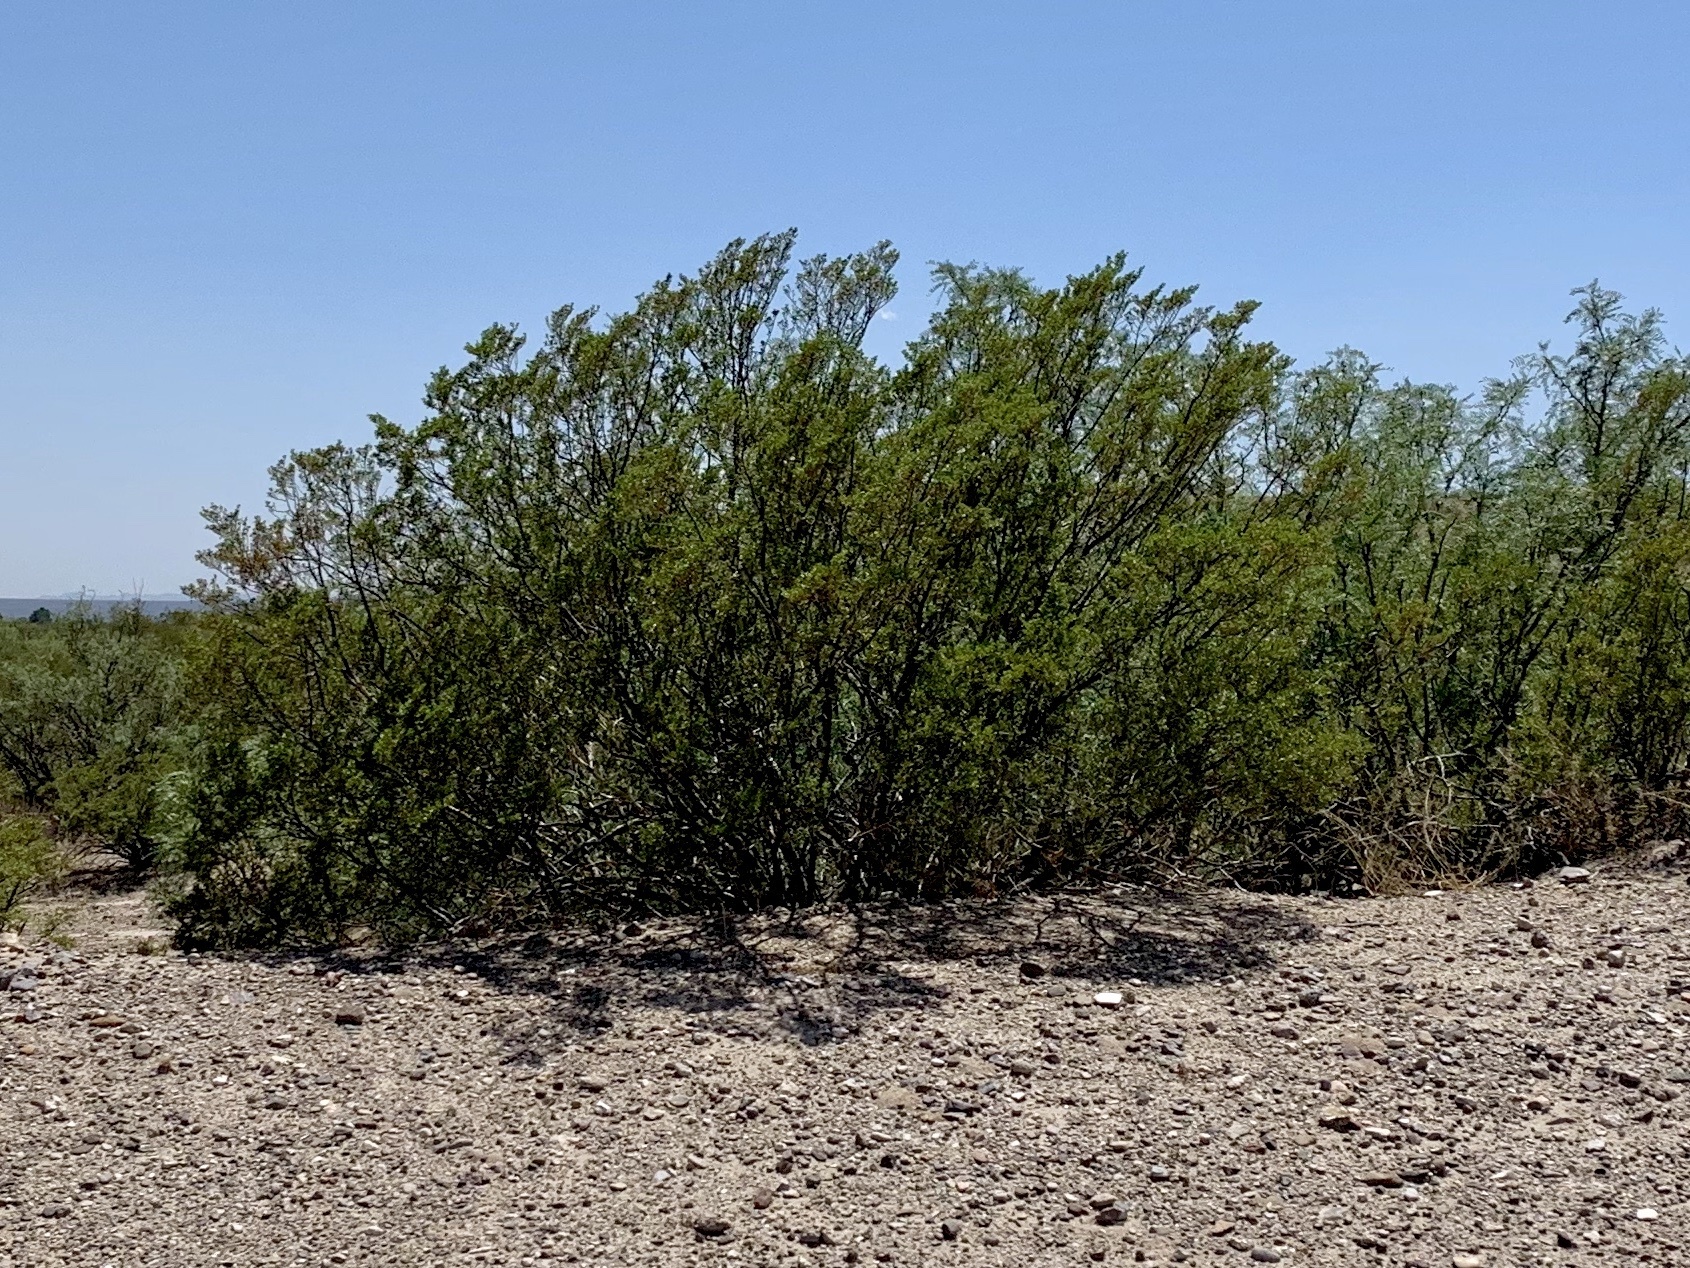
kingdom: Plantae
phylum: Tracheophyta
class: Magnoliopsida
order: Zygophyllales
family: Zygophyllaceae
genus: Larrea
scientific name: Larrea tridentata
